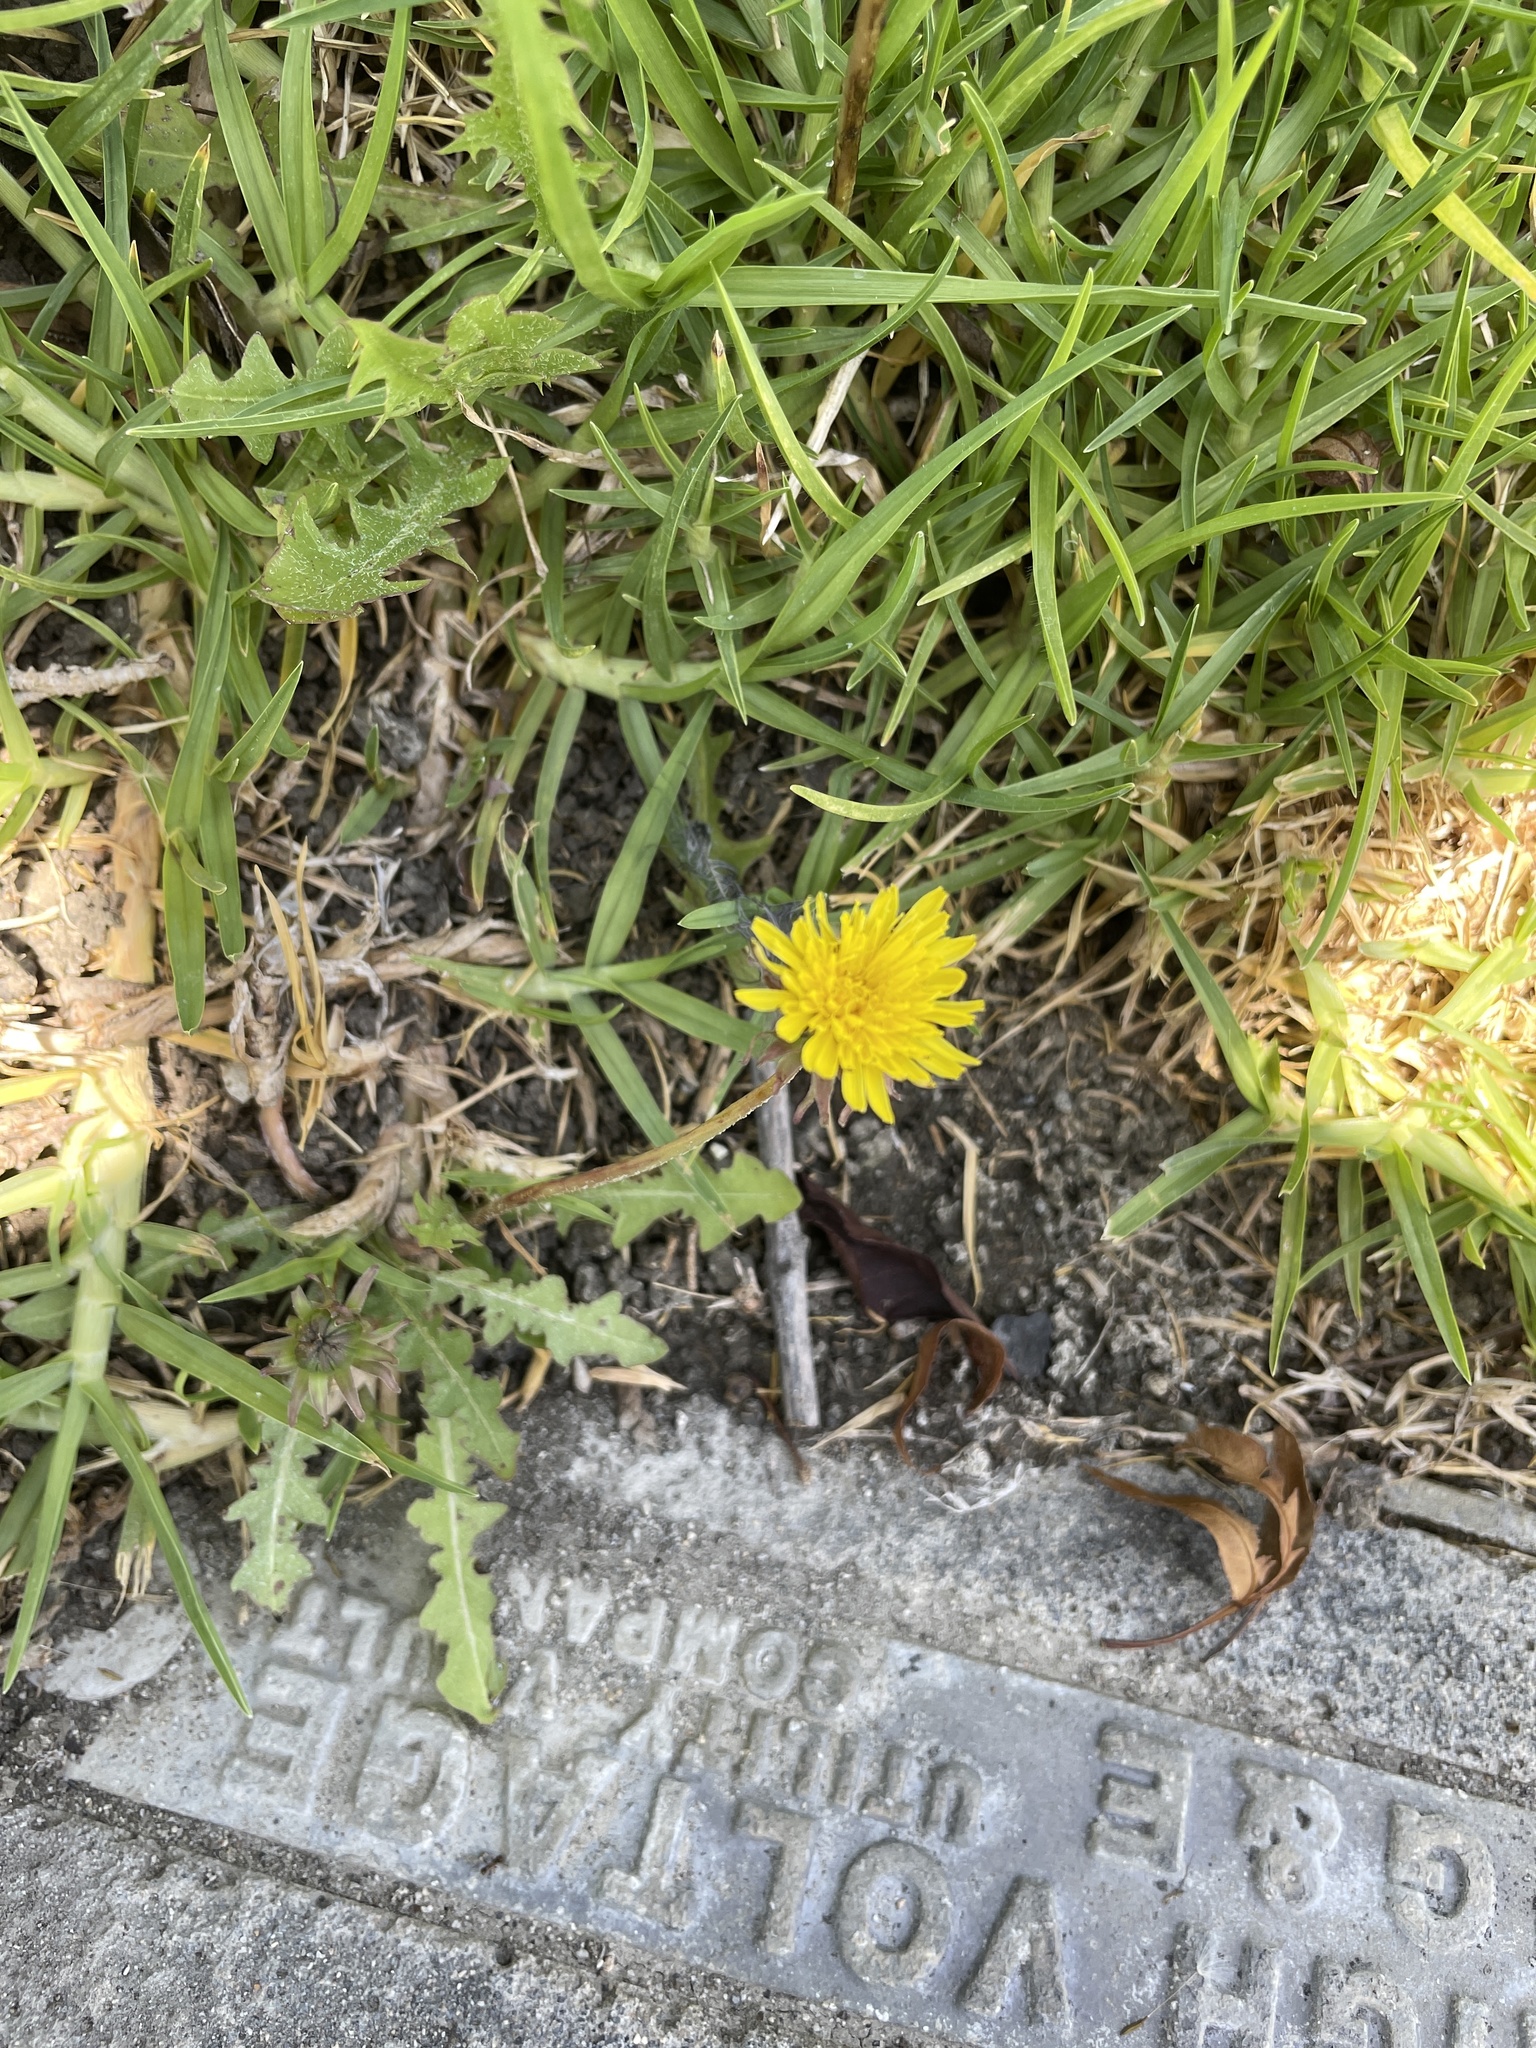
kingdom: Plantae
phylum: Tracheophyta
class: Magnoliopsida
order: Asterales
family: Asteraceae
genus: Taraxacum
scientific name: Taraxacum
